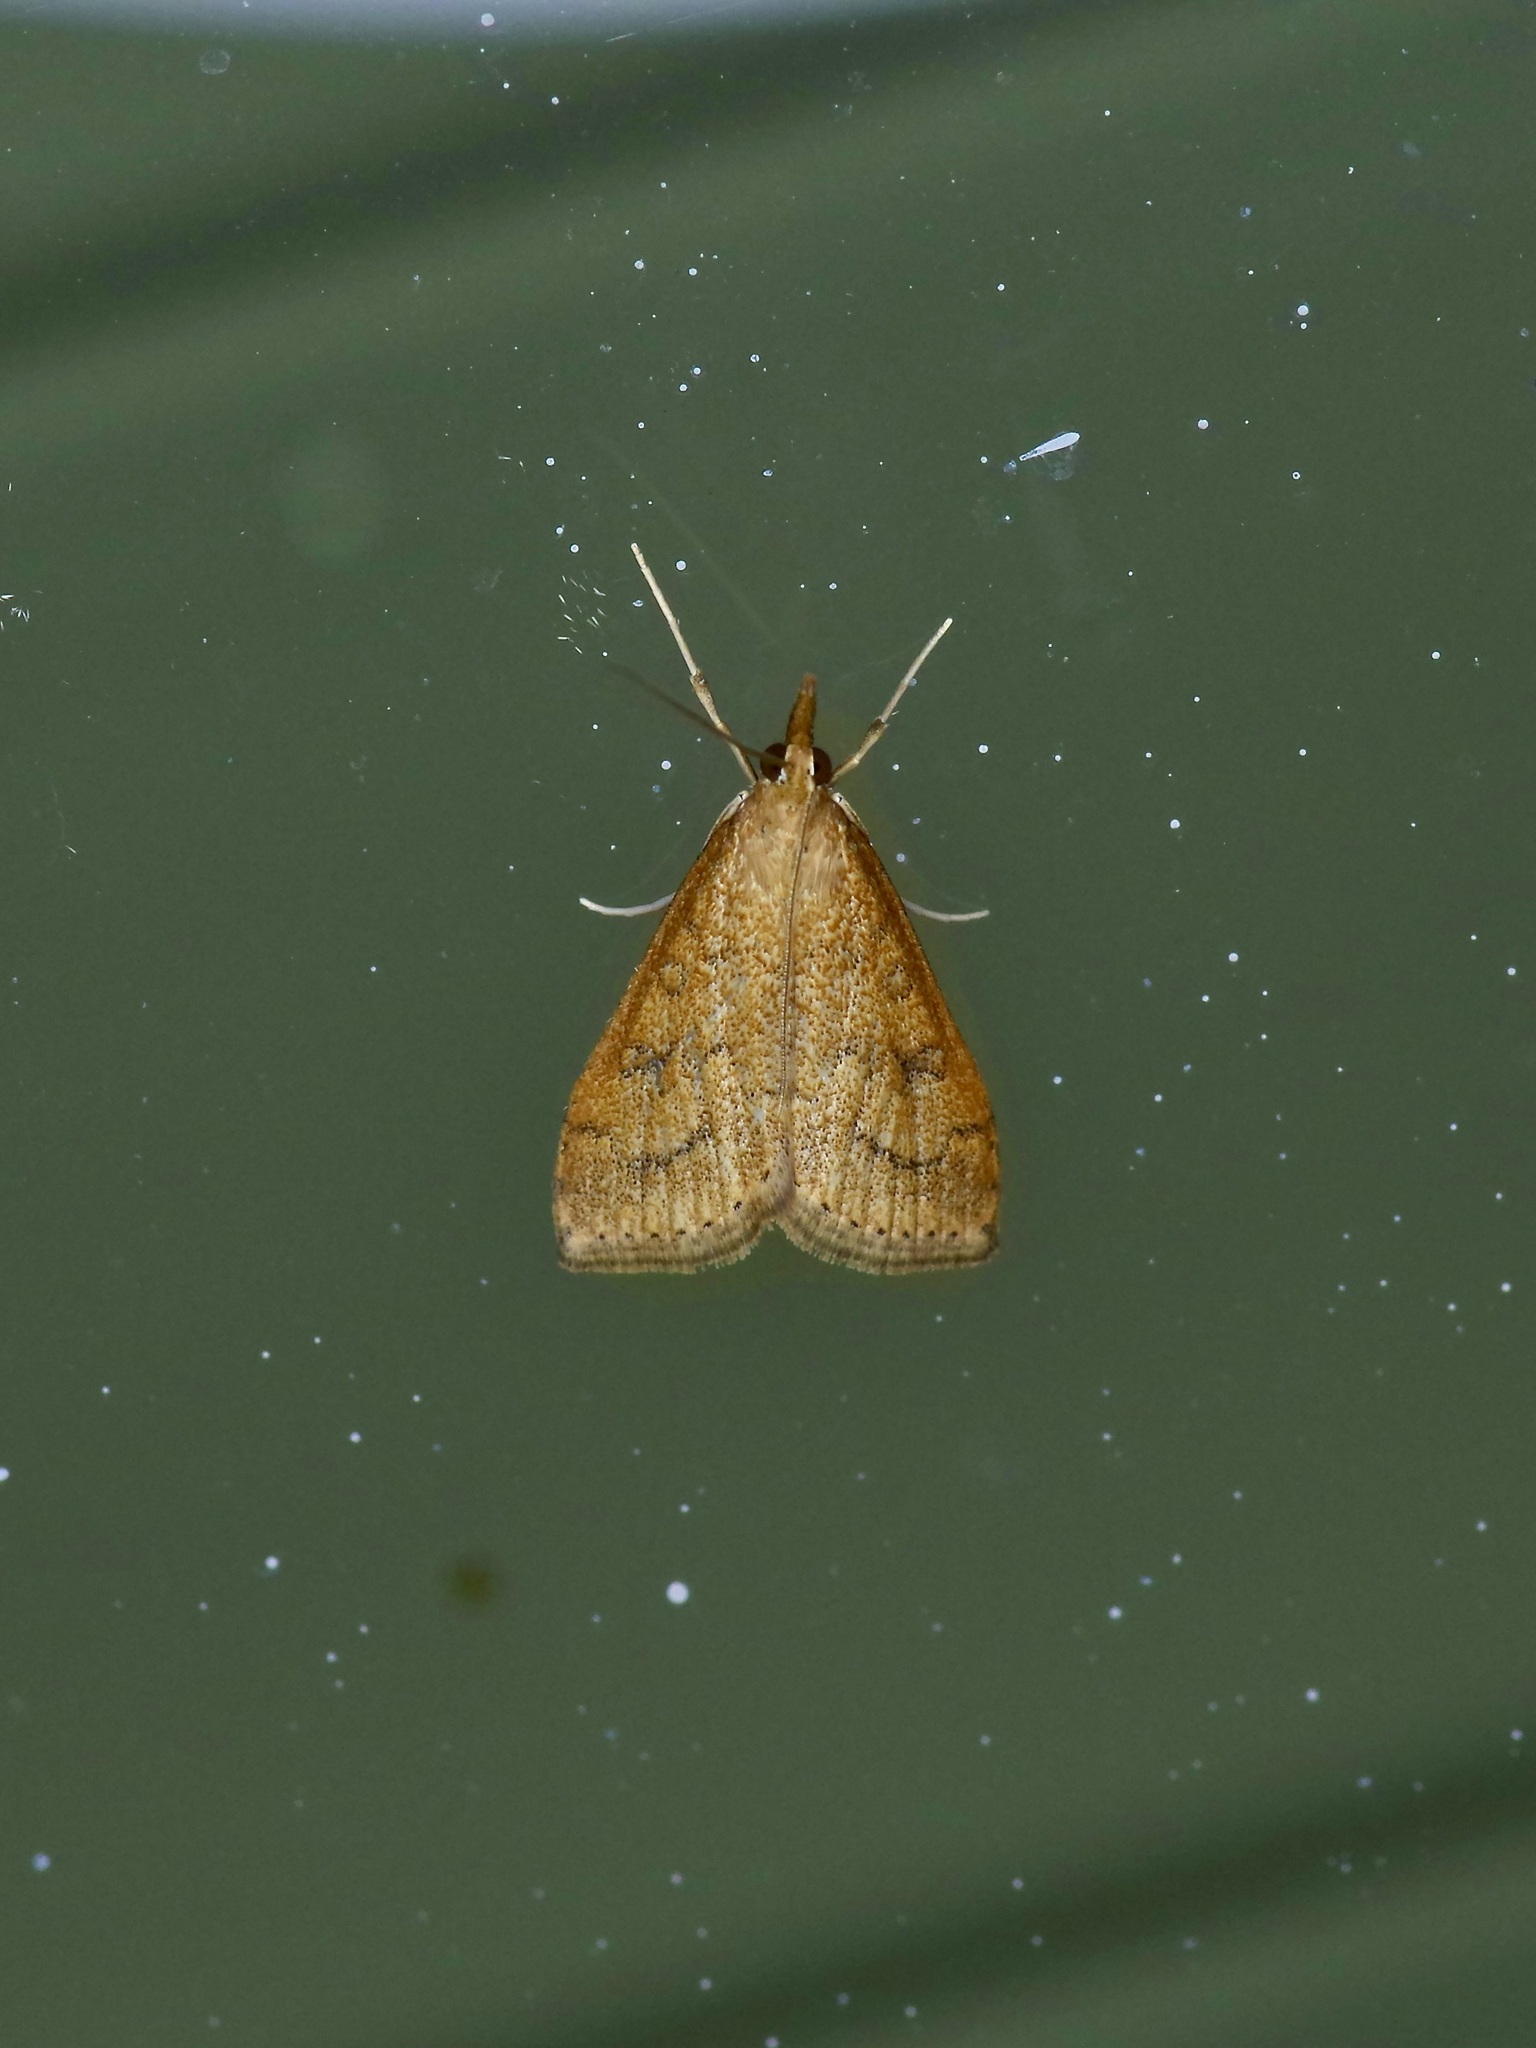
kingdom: Animalia
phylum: Arthropoda
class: Insecta
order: Lepidoptera
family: Crambidae
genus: Udea
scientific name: Udea rubigalis
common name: Celery leaftier moth
